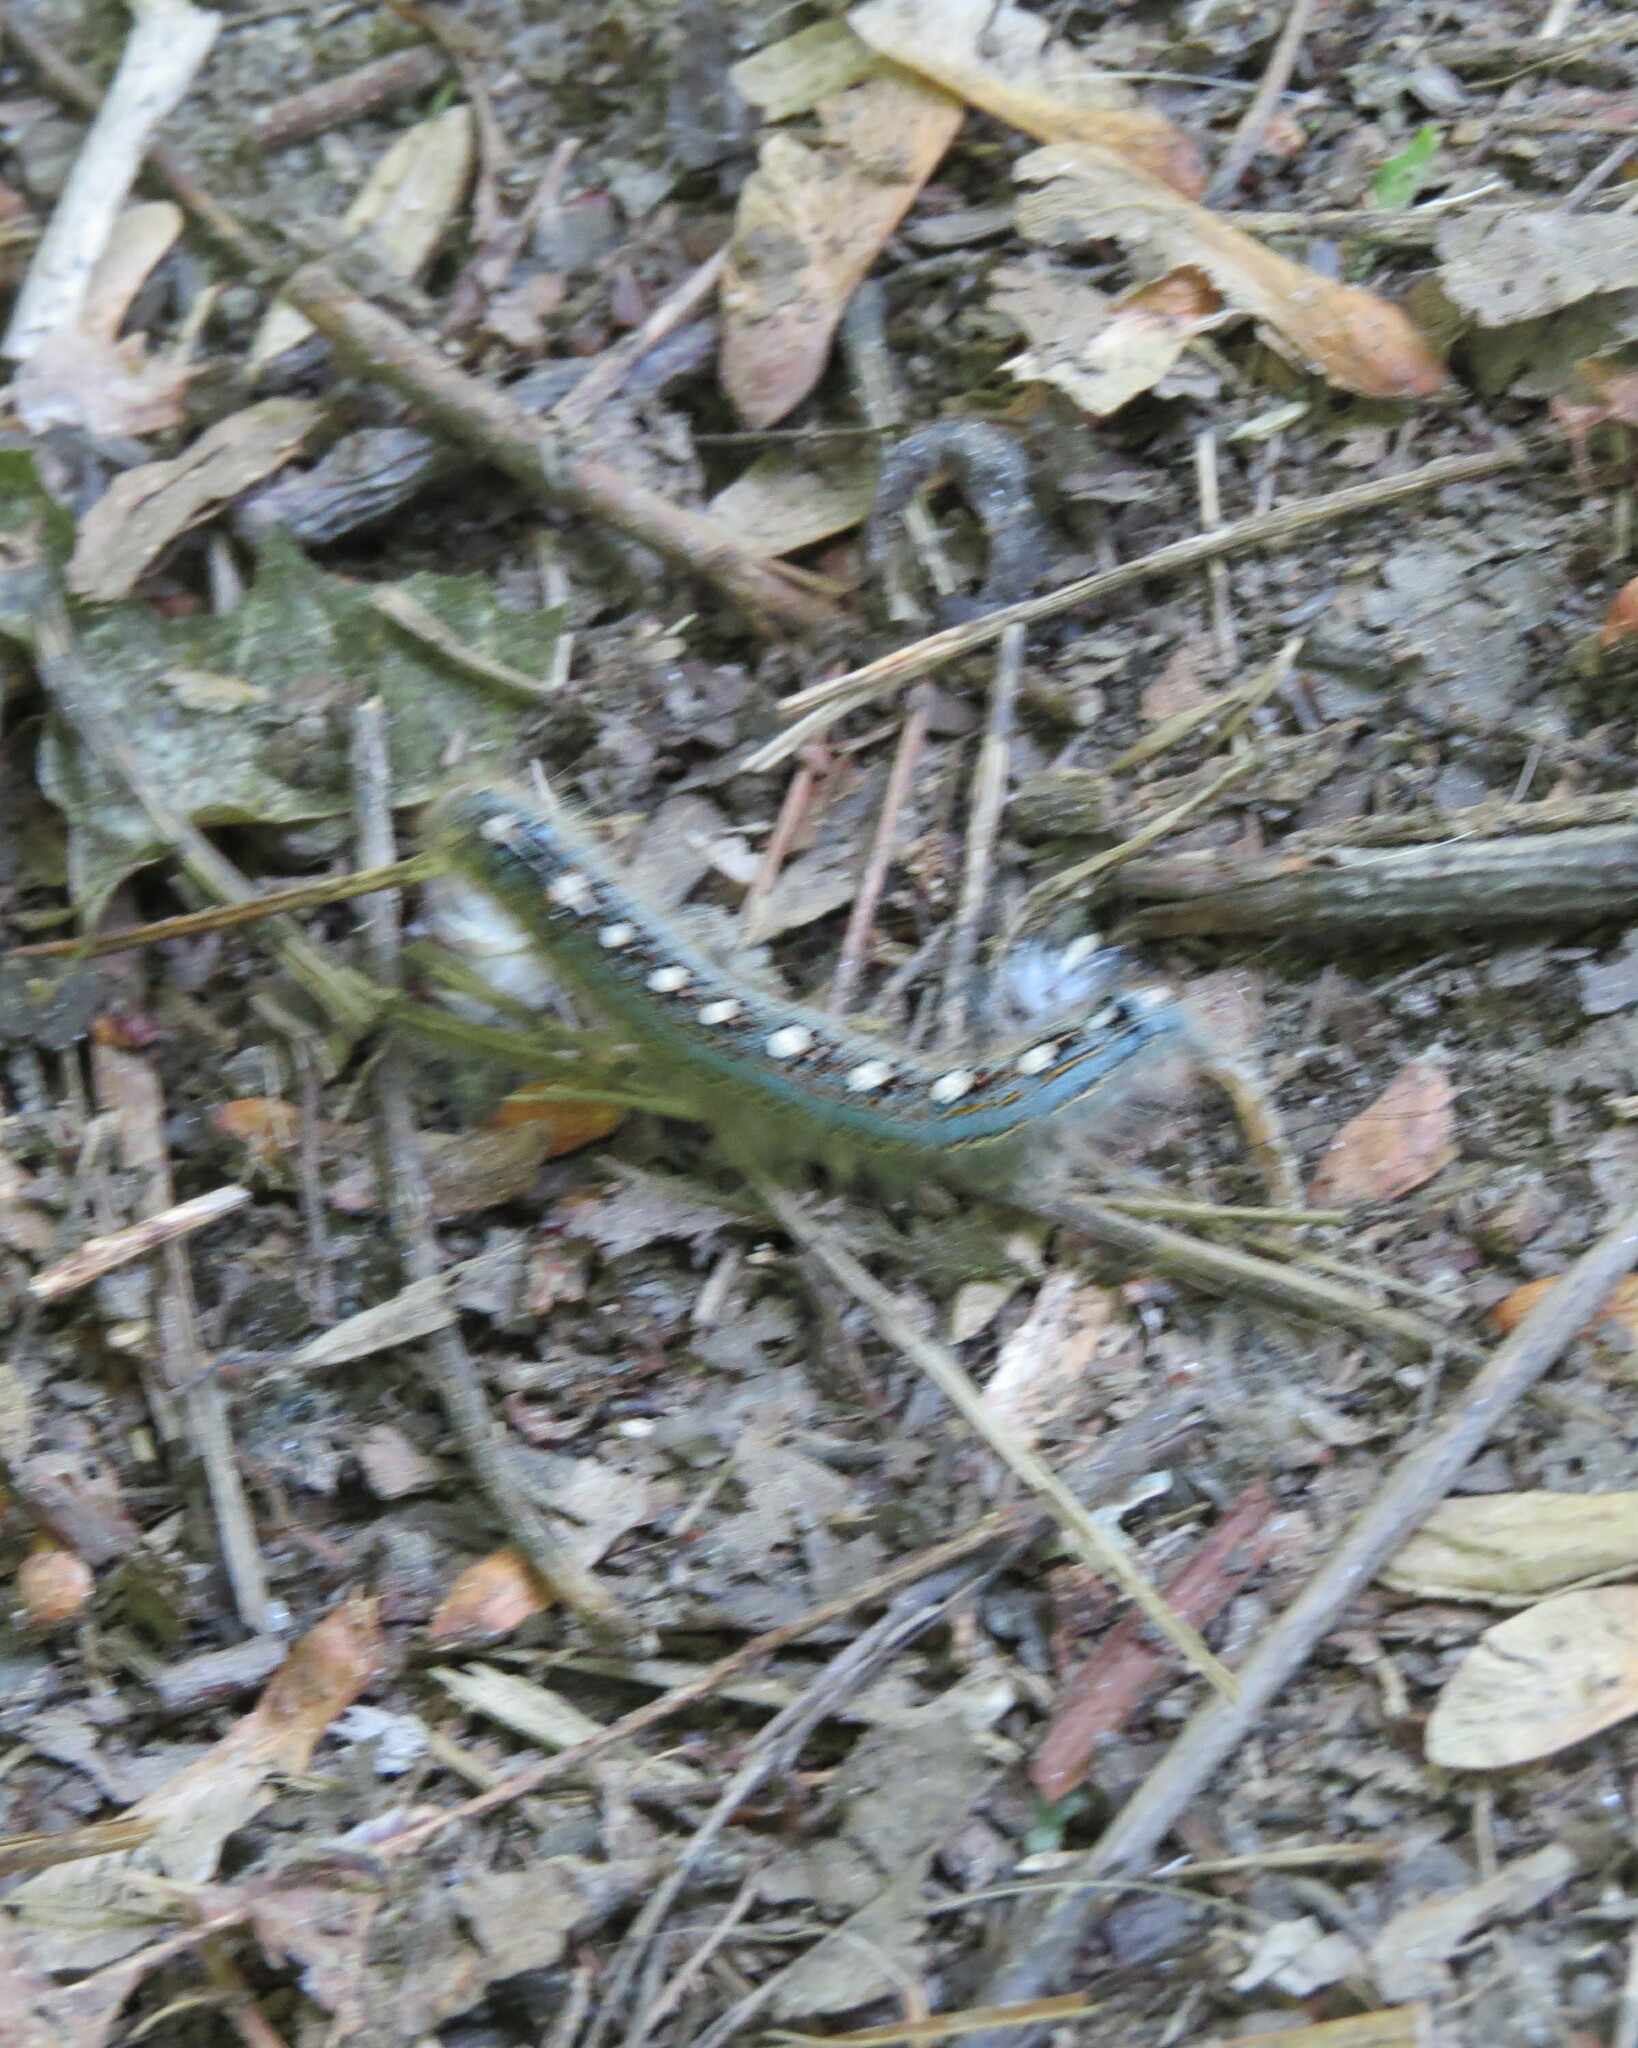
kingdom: Animalia
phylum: Arthropoda
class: Insecta
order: Lepidoptera
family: Lasiocampidae
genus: Malacosoma
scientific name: Malacosoma disstria
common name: Forest tent caterpillar
